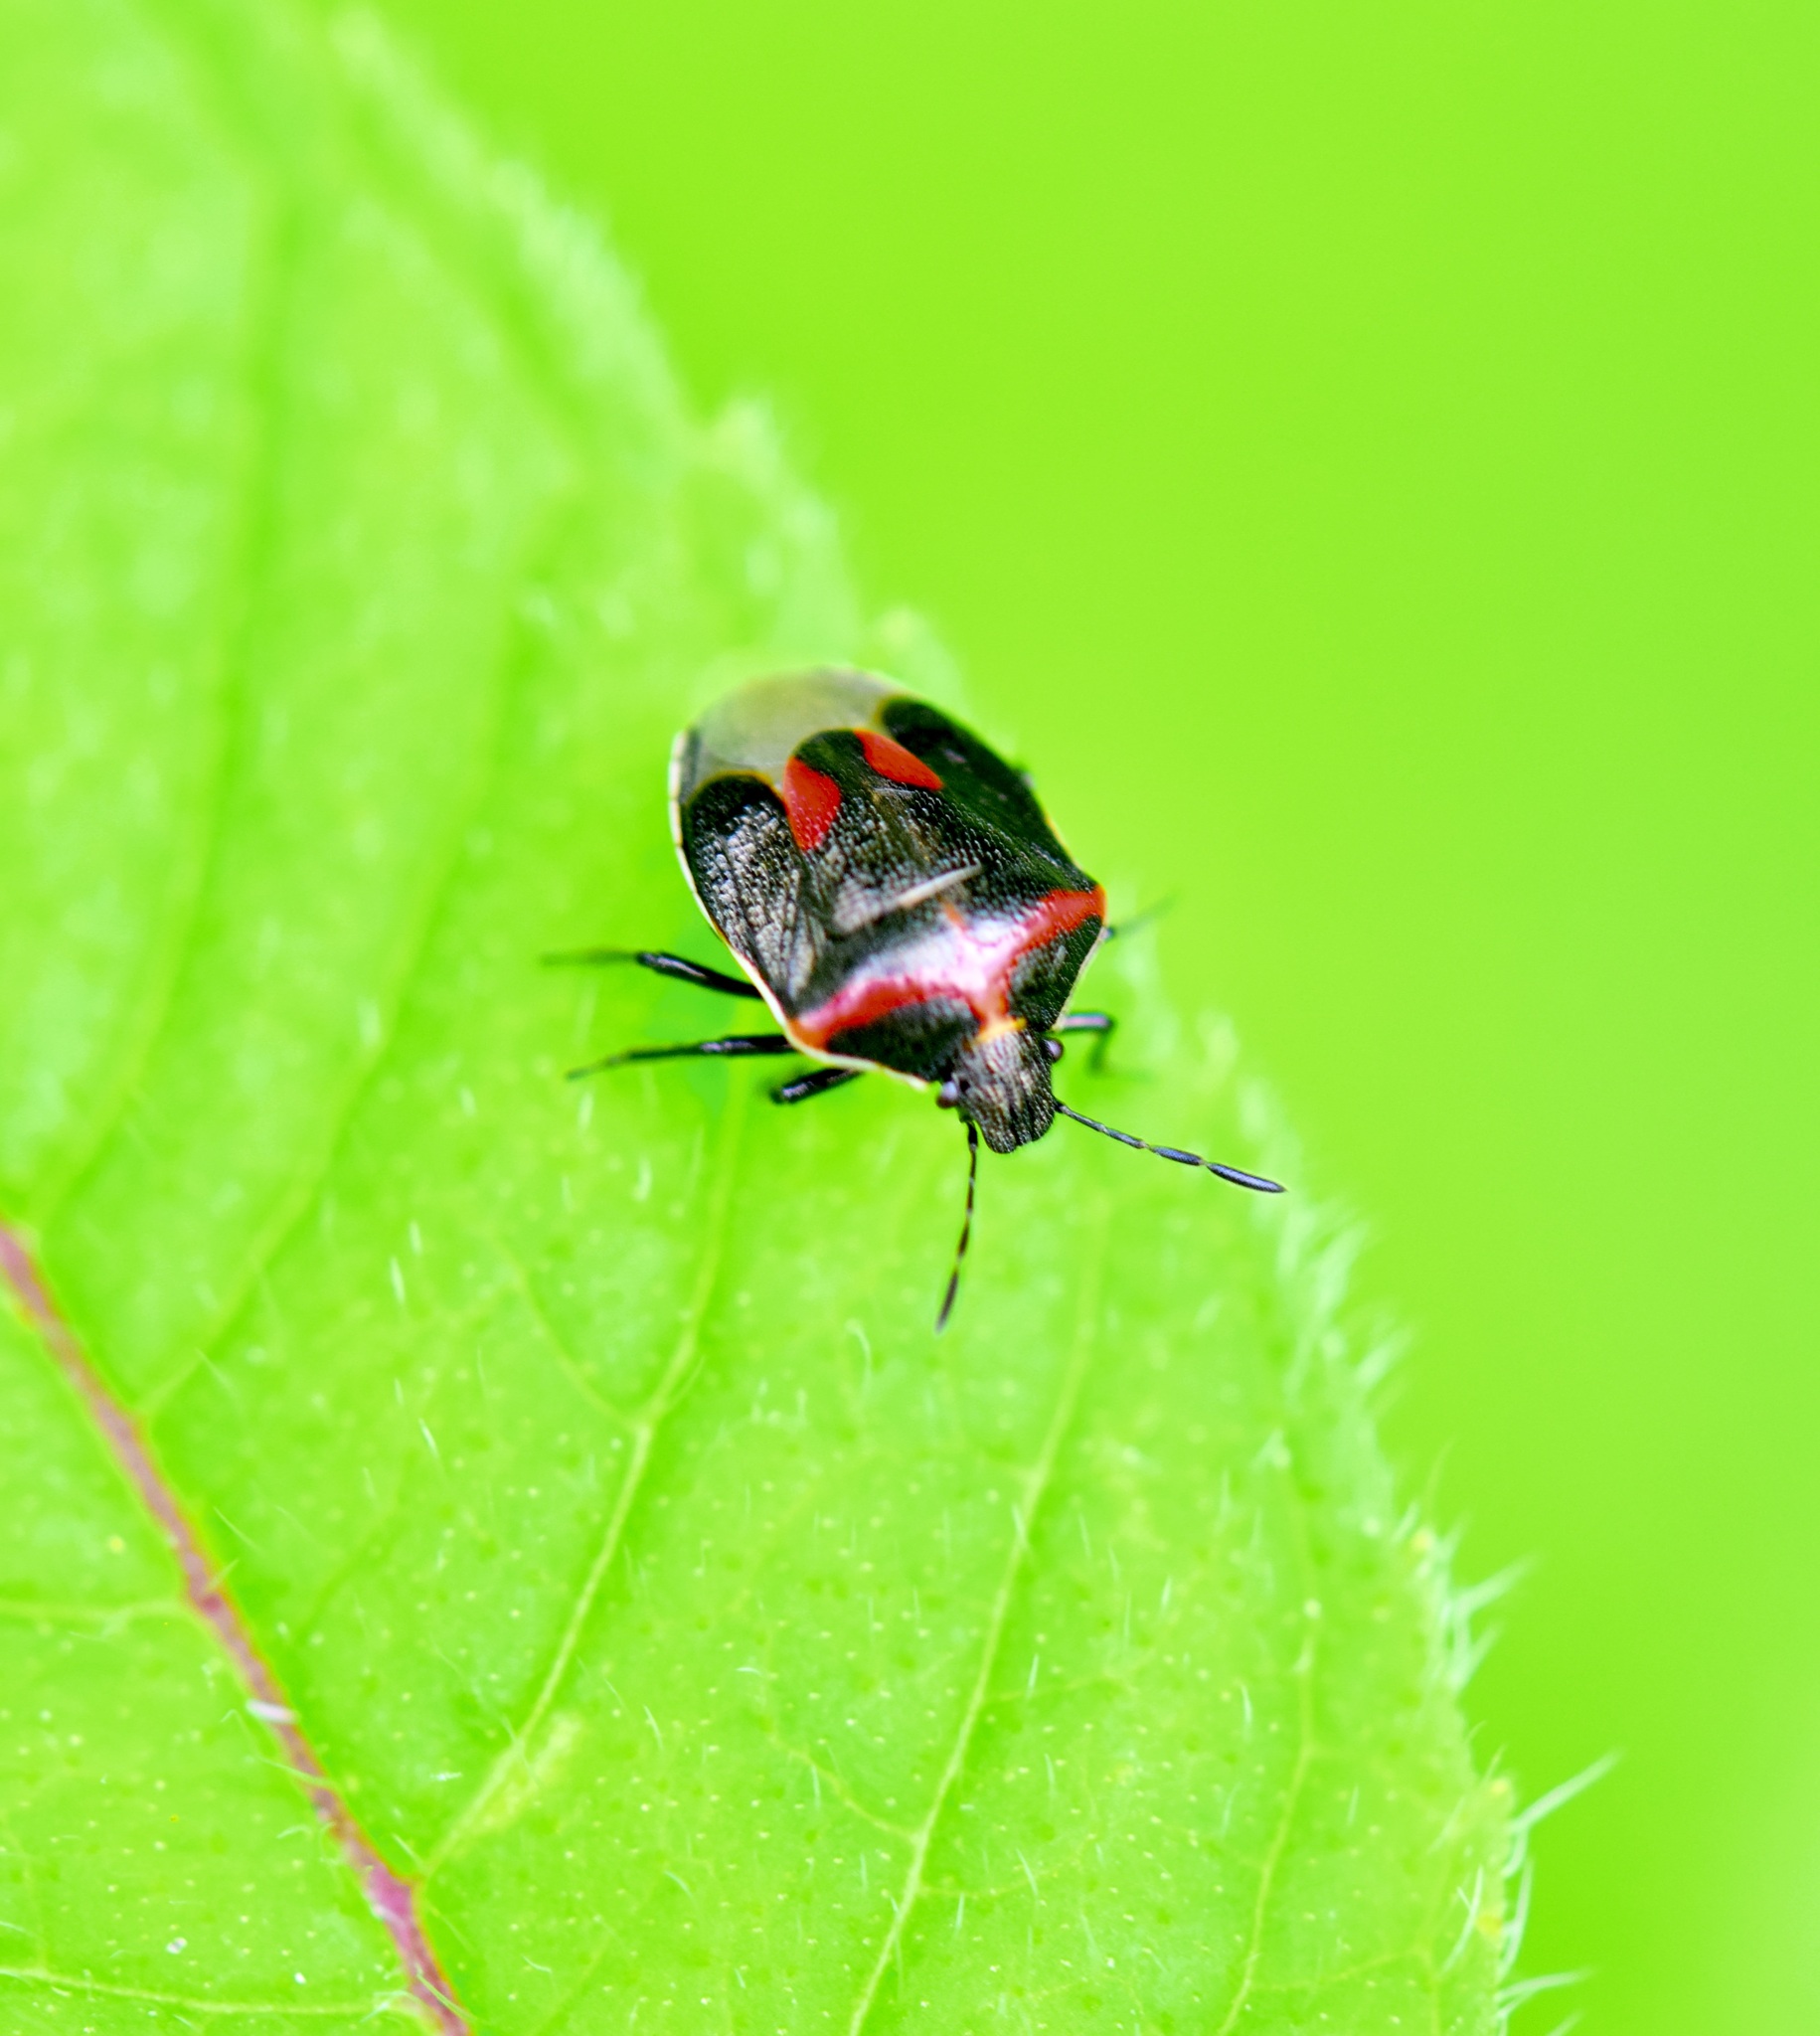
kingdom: Animalia
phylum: Arthropoda
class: Insecta
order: Hemiptera
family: Pentatomidae
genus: Cosmopepla
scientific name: Cosmopepla lintneriana
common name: Twice-stabbed stink bug
